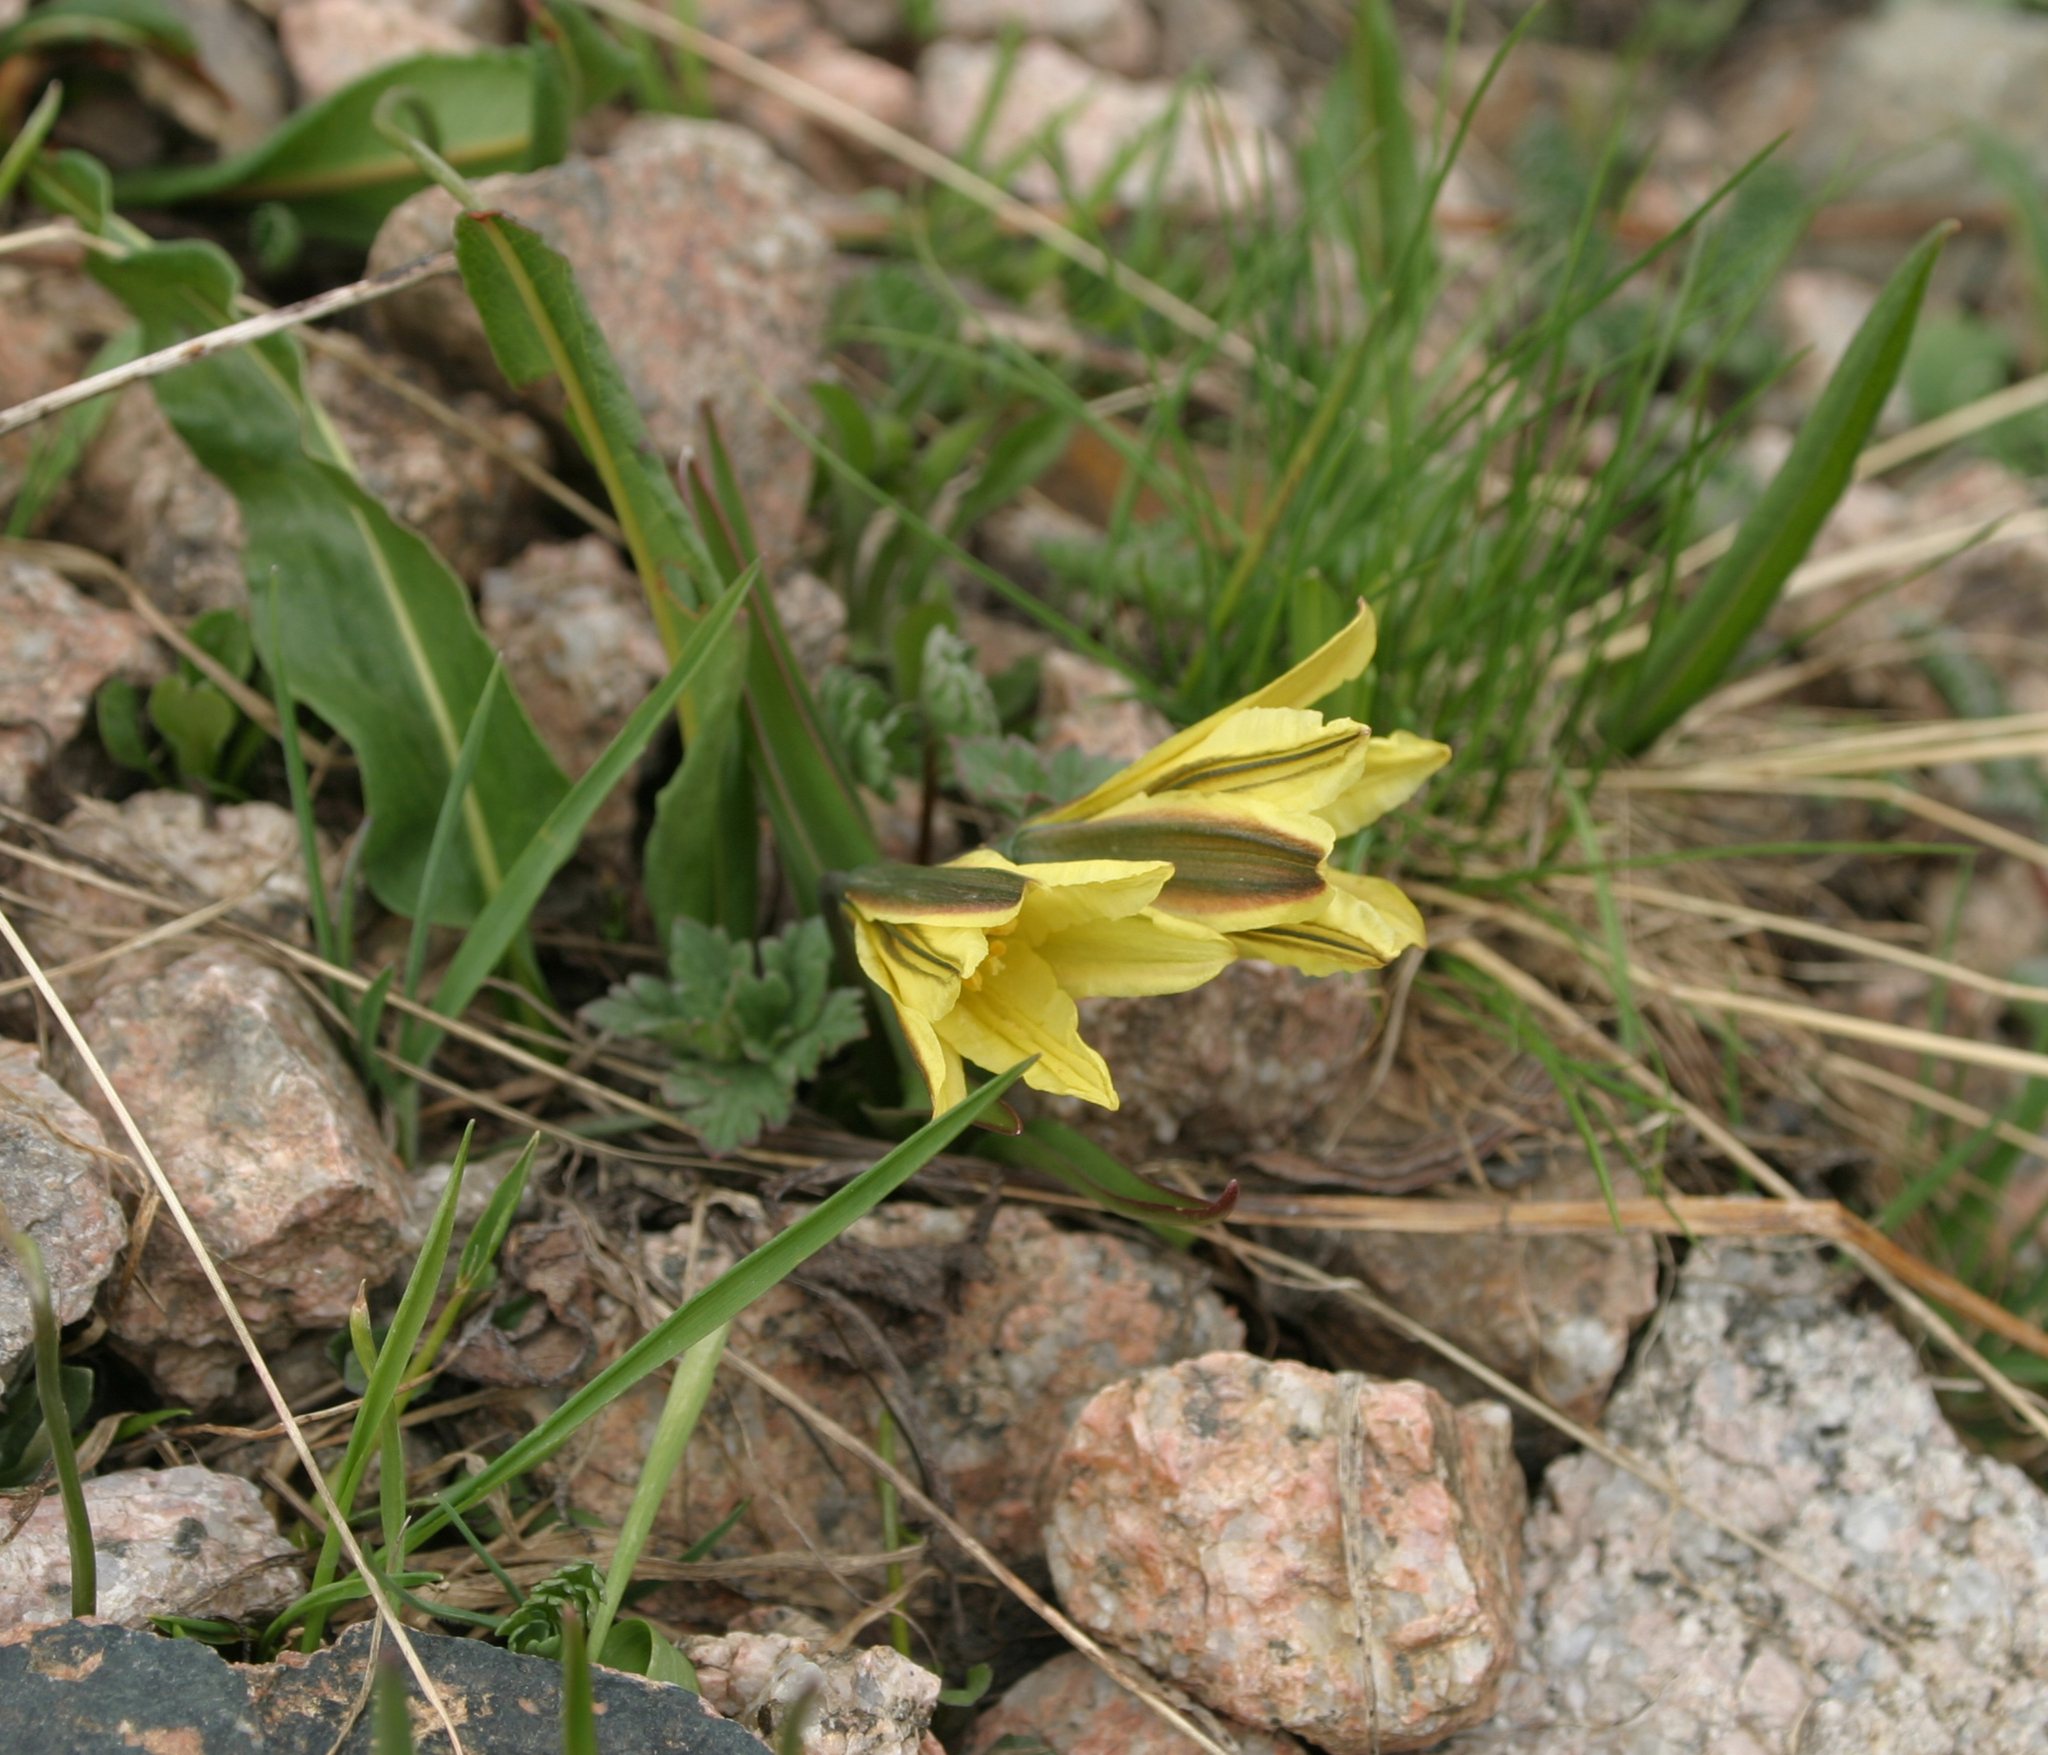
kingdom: Plantae
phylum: Tracheophyta
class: Liliopsida
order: Liliales
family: Liliaceae
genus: Tulipa
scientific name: Tulipa heterophylla
